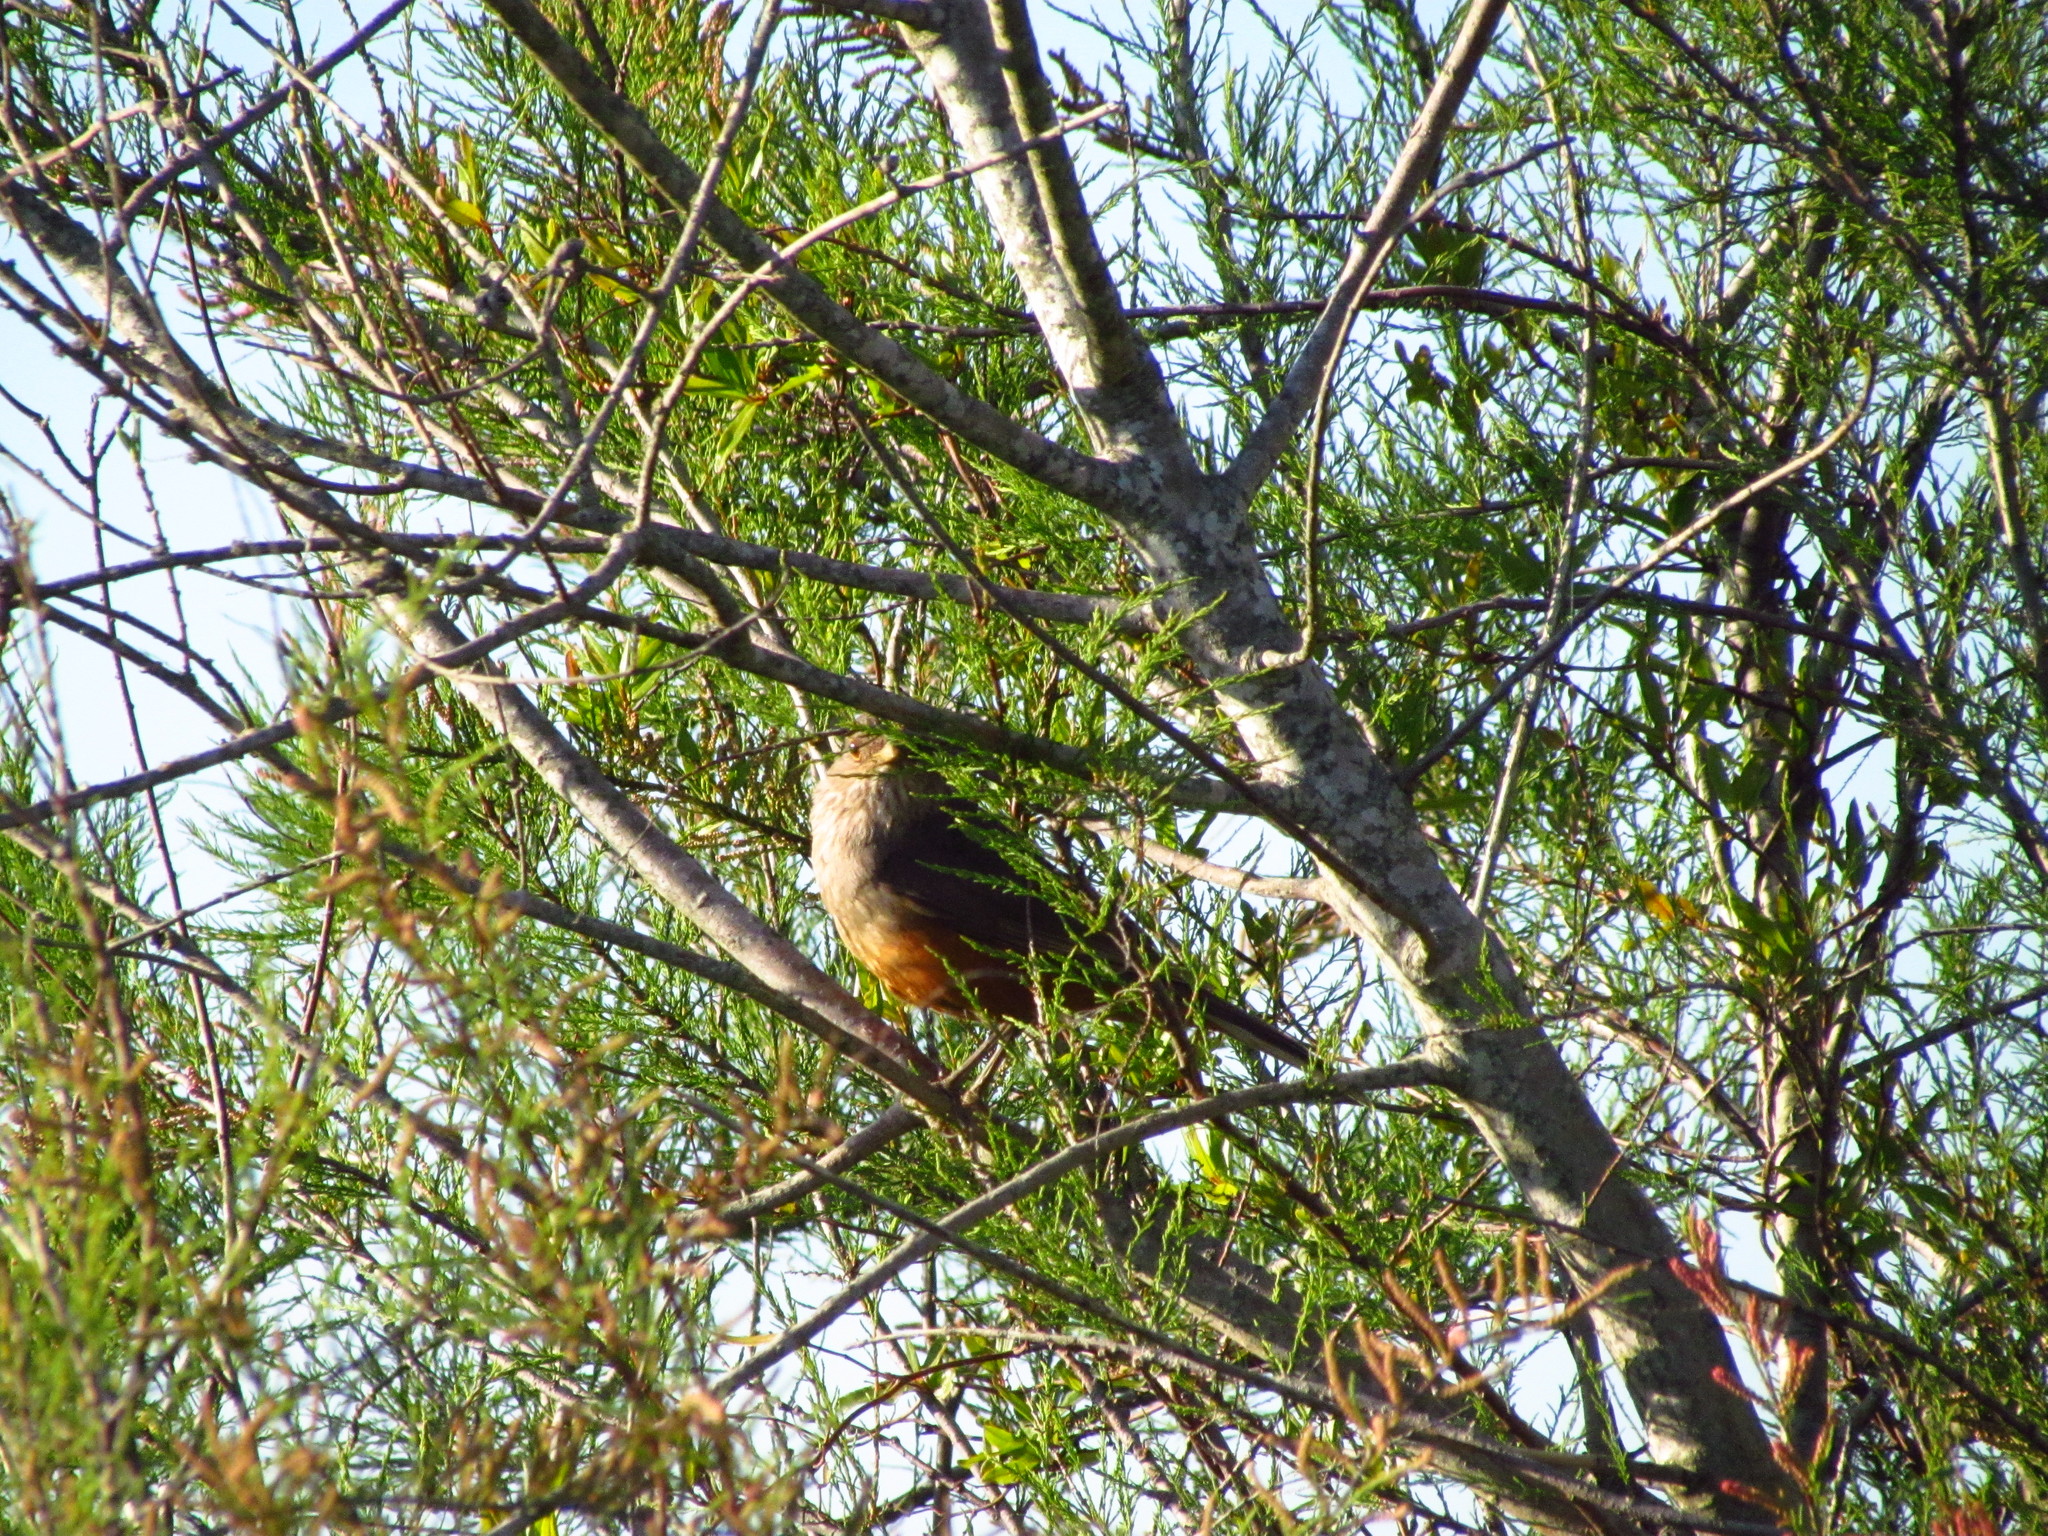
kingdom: Animalia
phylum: Chordata
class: Aves
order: Passeriformes
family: Turdidae
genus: Turdus
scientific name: Turdus rufiventris
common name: Rufous-bellied thrush
